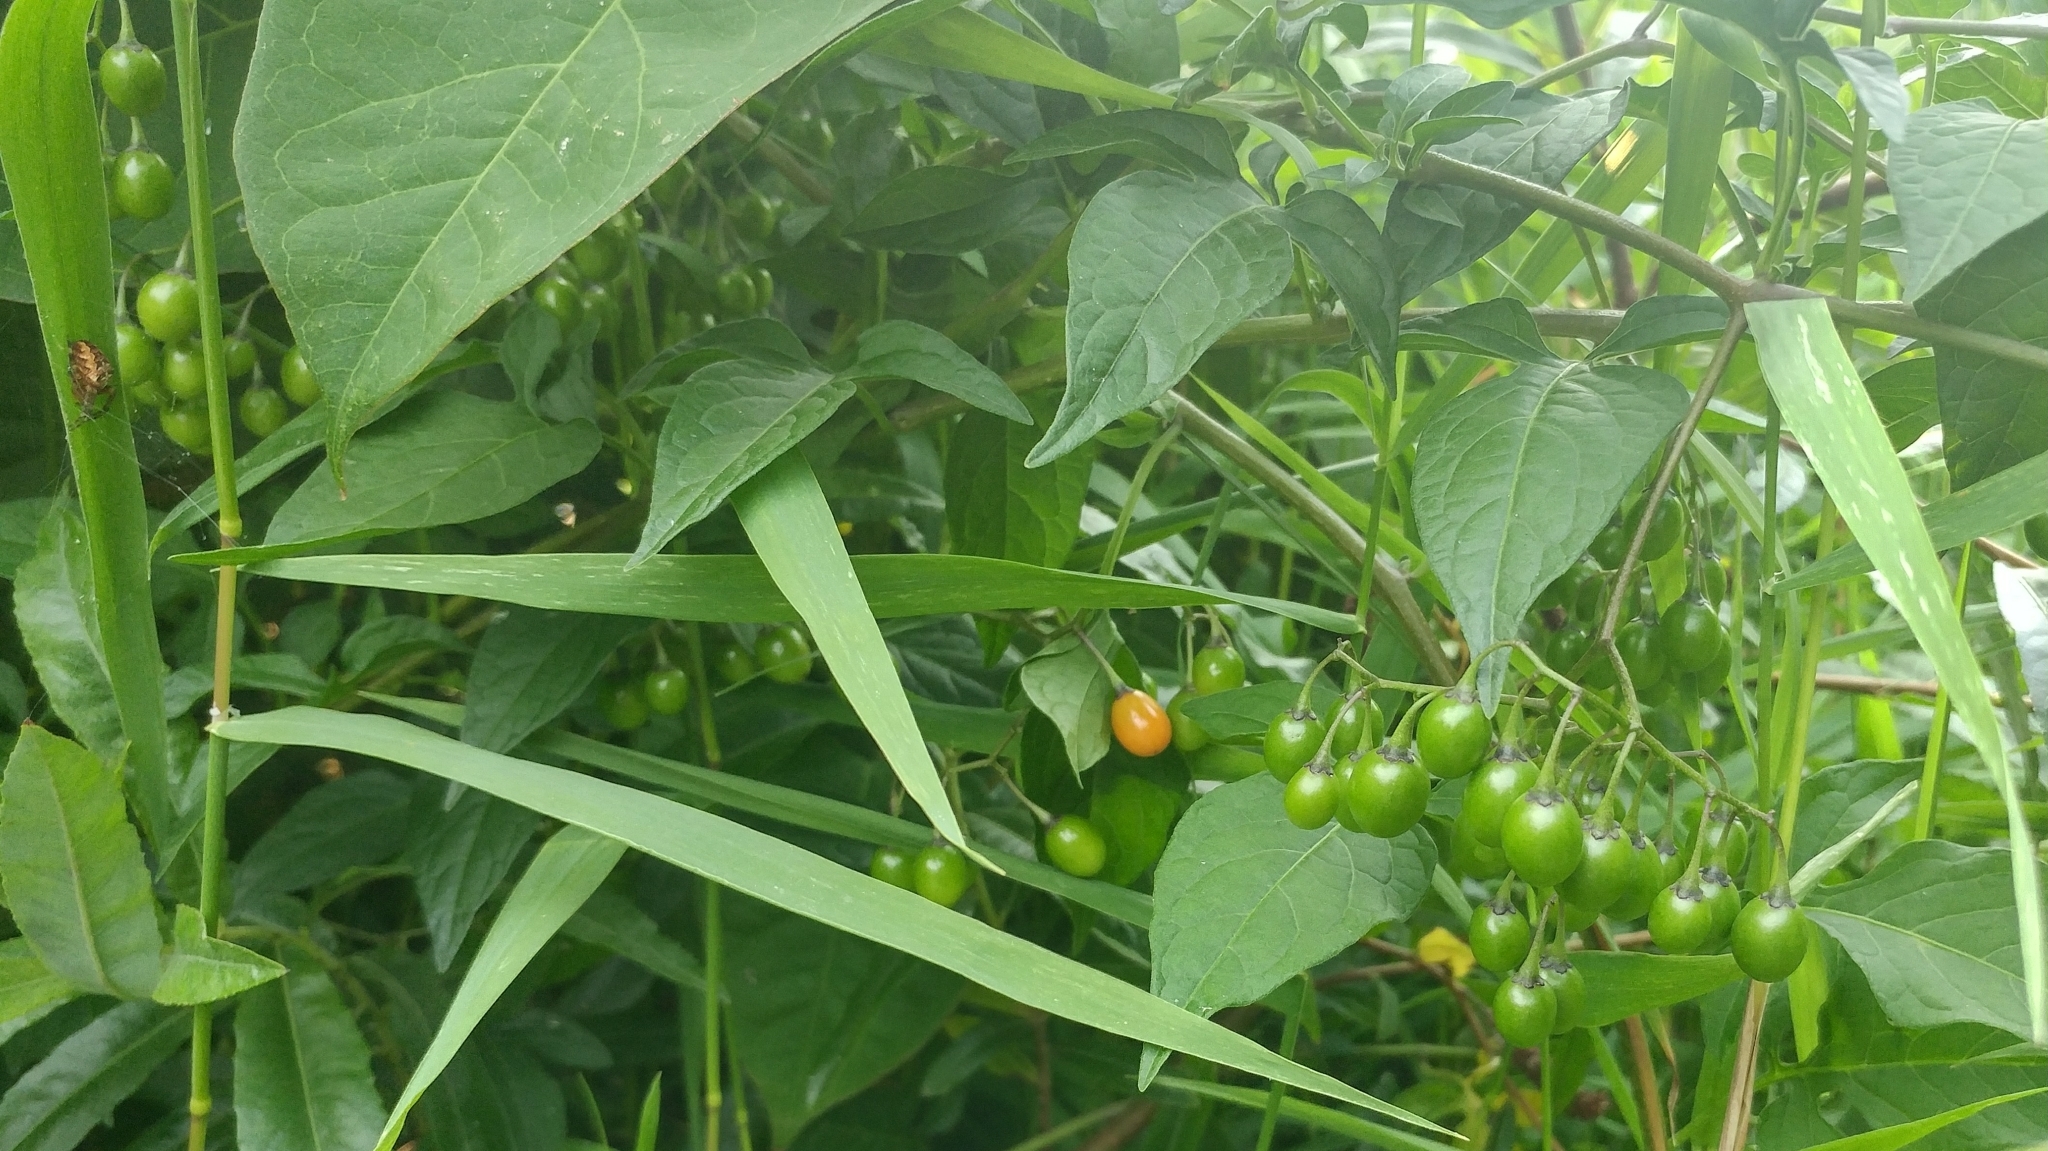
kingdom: Plantae
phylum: Tracheophyta
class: Magnoliopsida
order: Solanales
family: Solanaceae
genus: Solanum
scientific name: Solanum dulcamara
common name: Climbing nightshade
